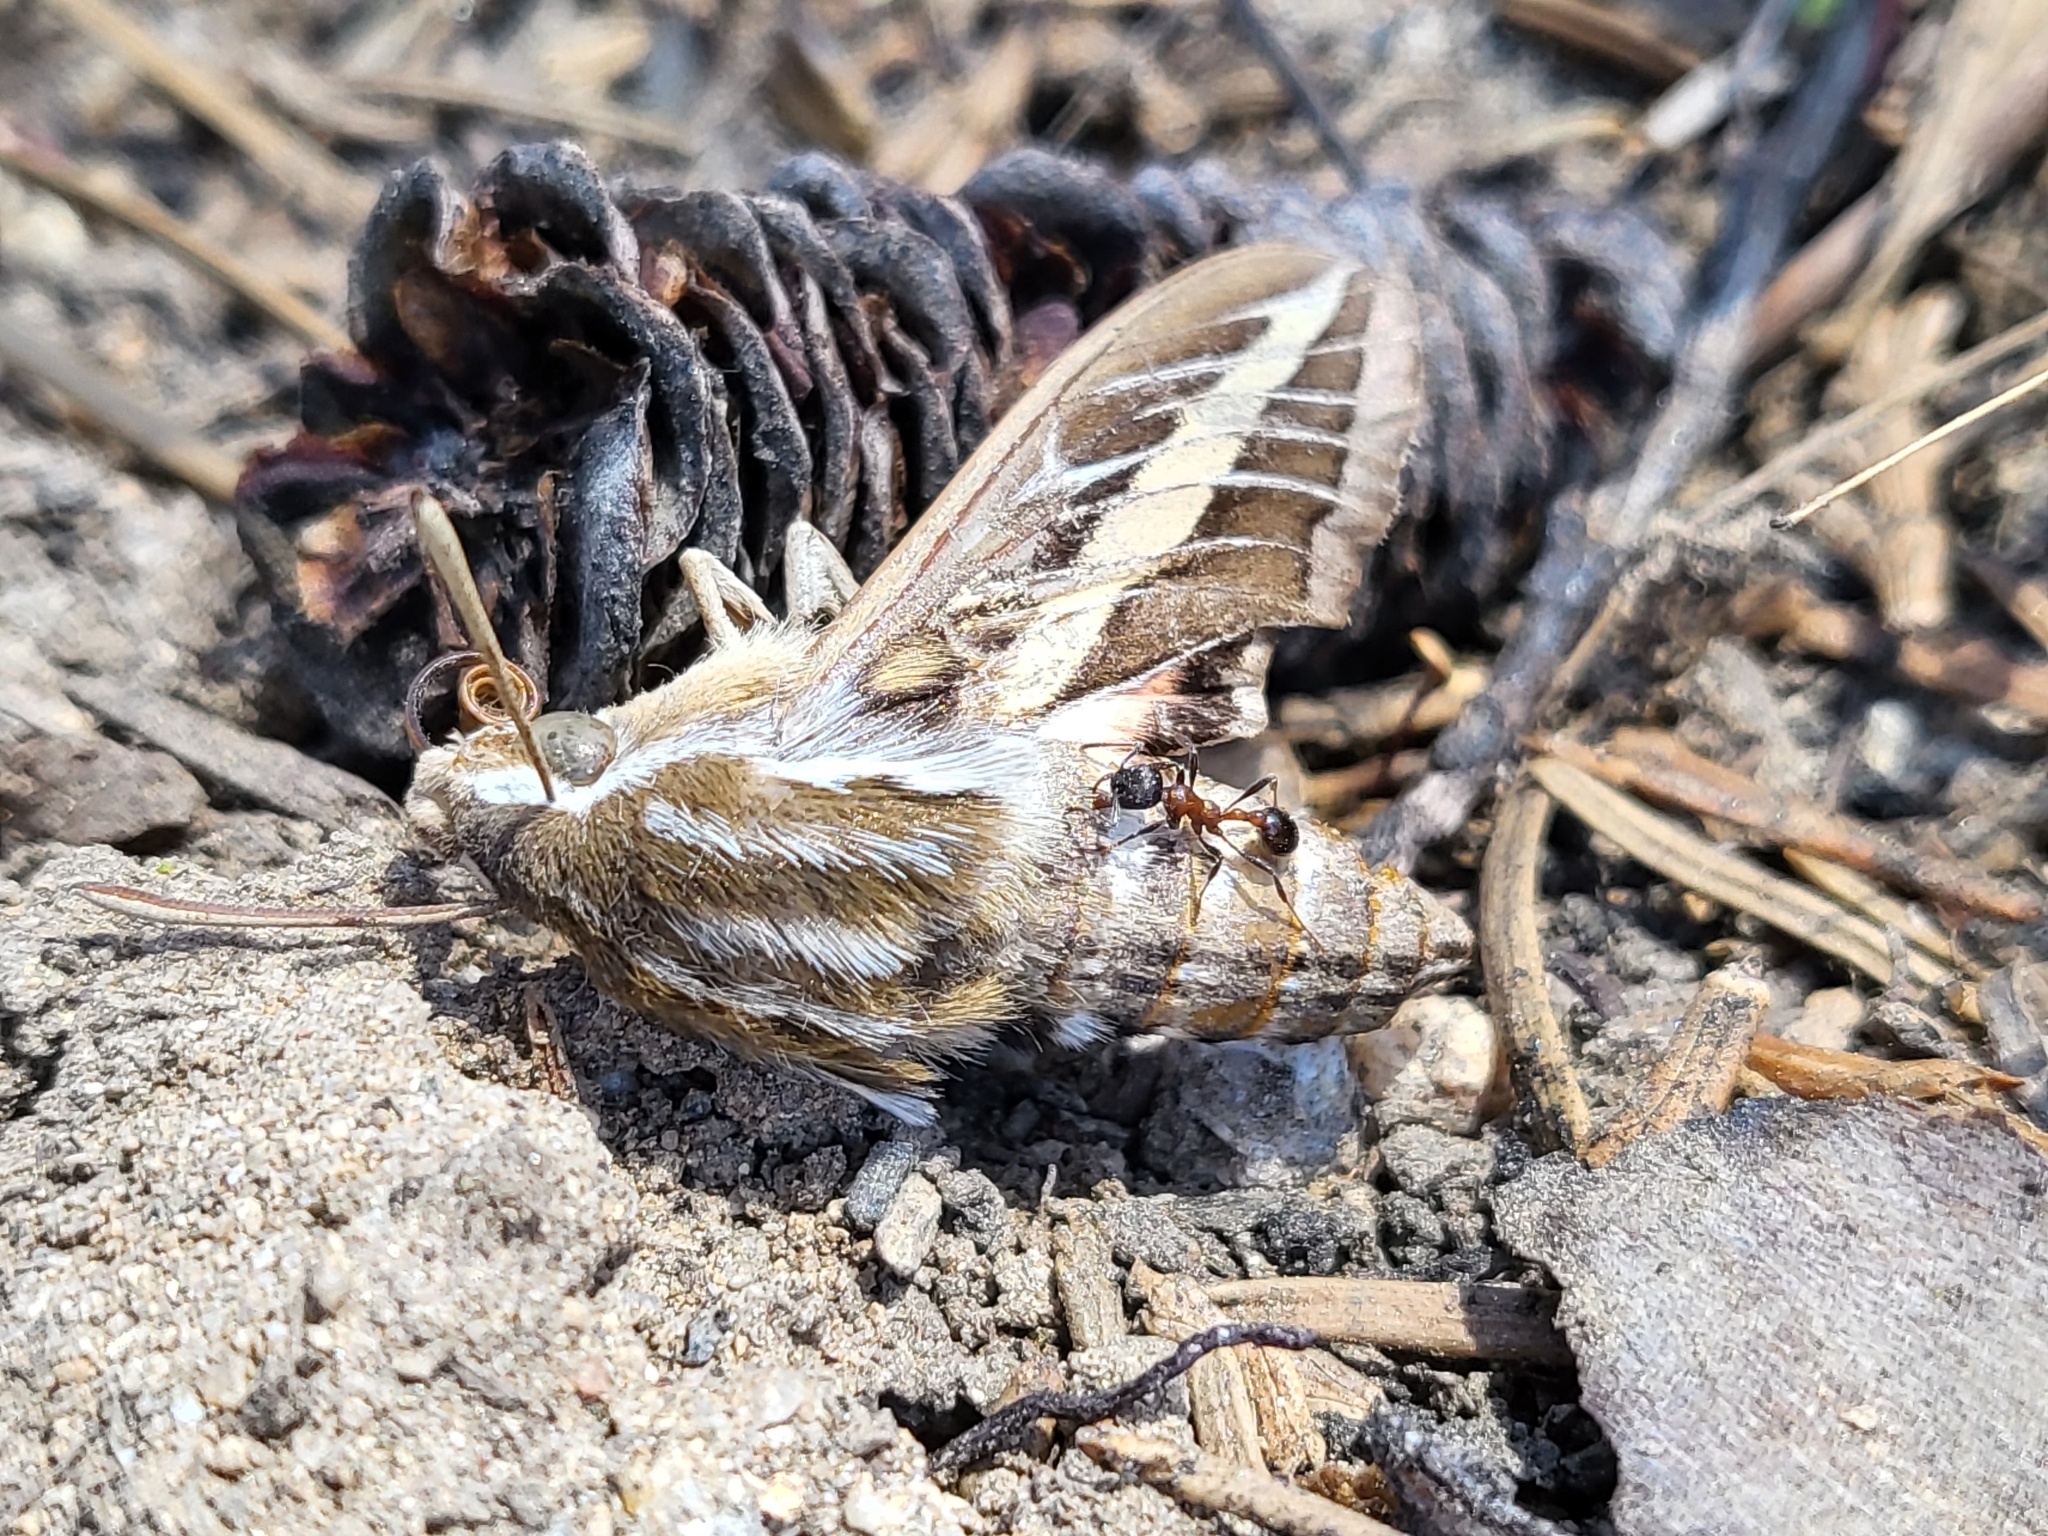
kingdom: Animalia
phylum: Arthropoda
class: Insecta
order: Lepidoptera
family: Sphingidae
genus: Hyles
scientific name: Hyles lineata
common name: White-lined sphinx
